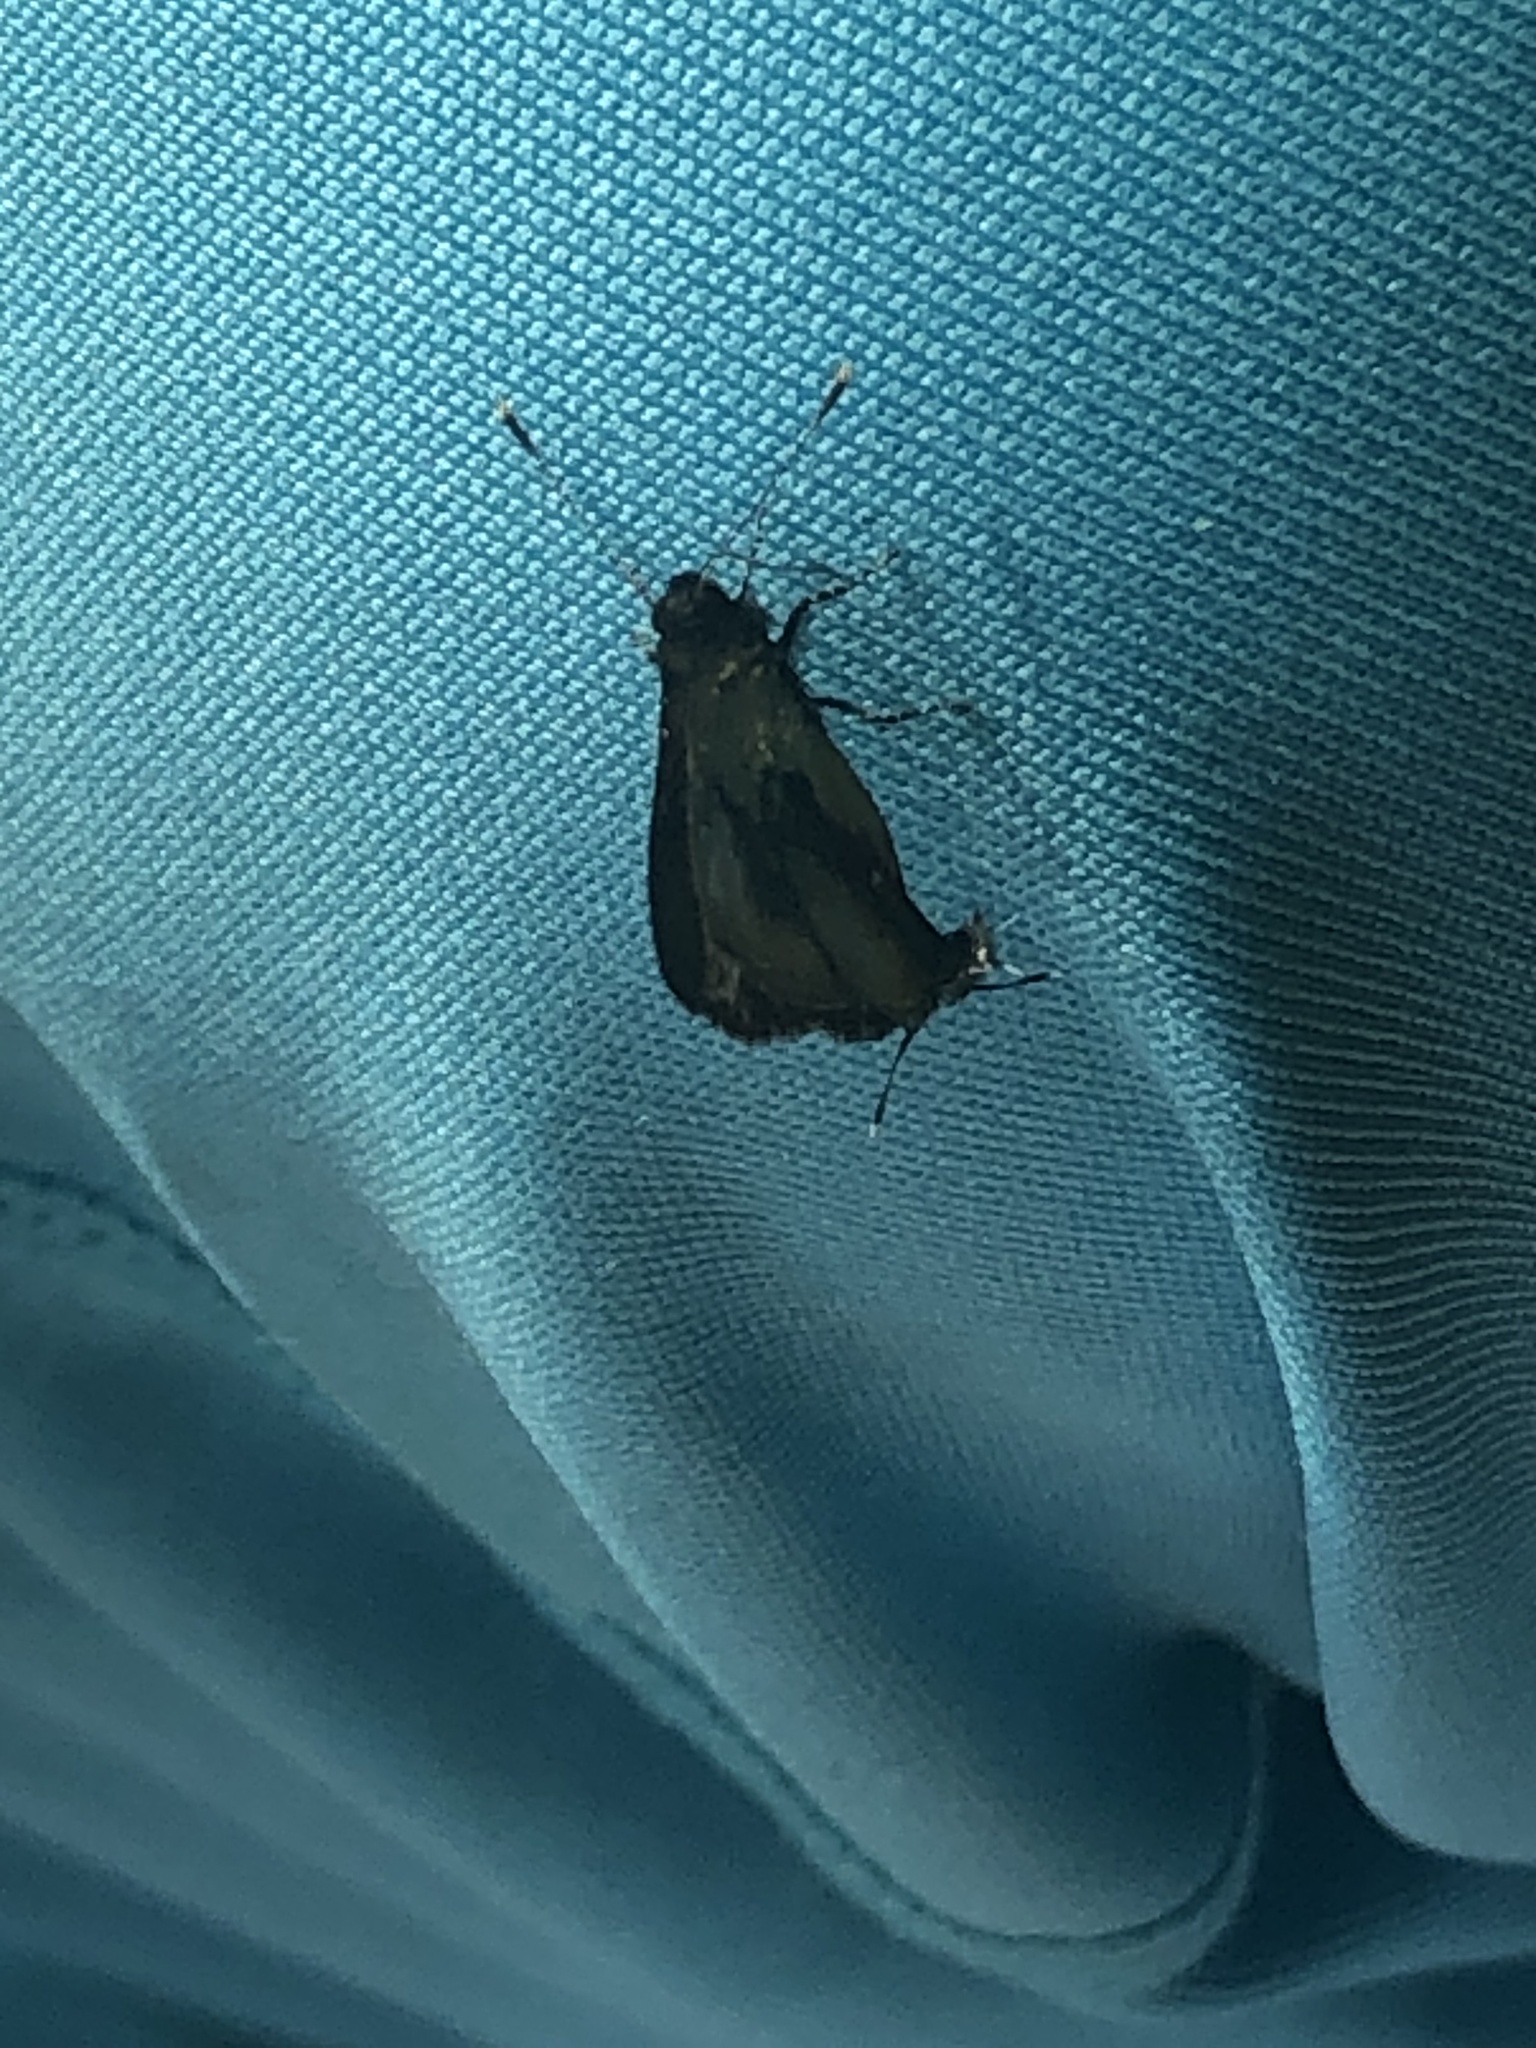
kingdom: Animalia
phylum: Arthropoda
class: Insecta
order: Lepidoptera
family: Lycaenidae
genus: Thecla
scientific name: Thecla buphonia
